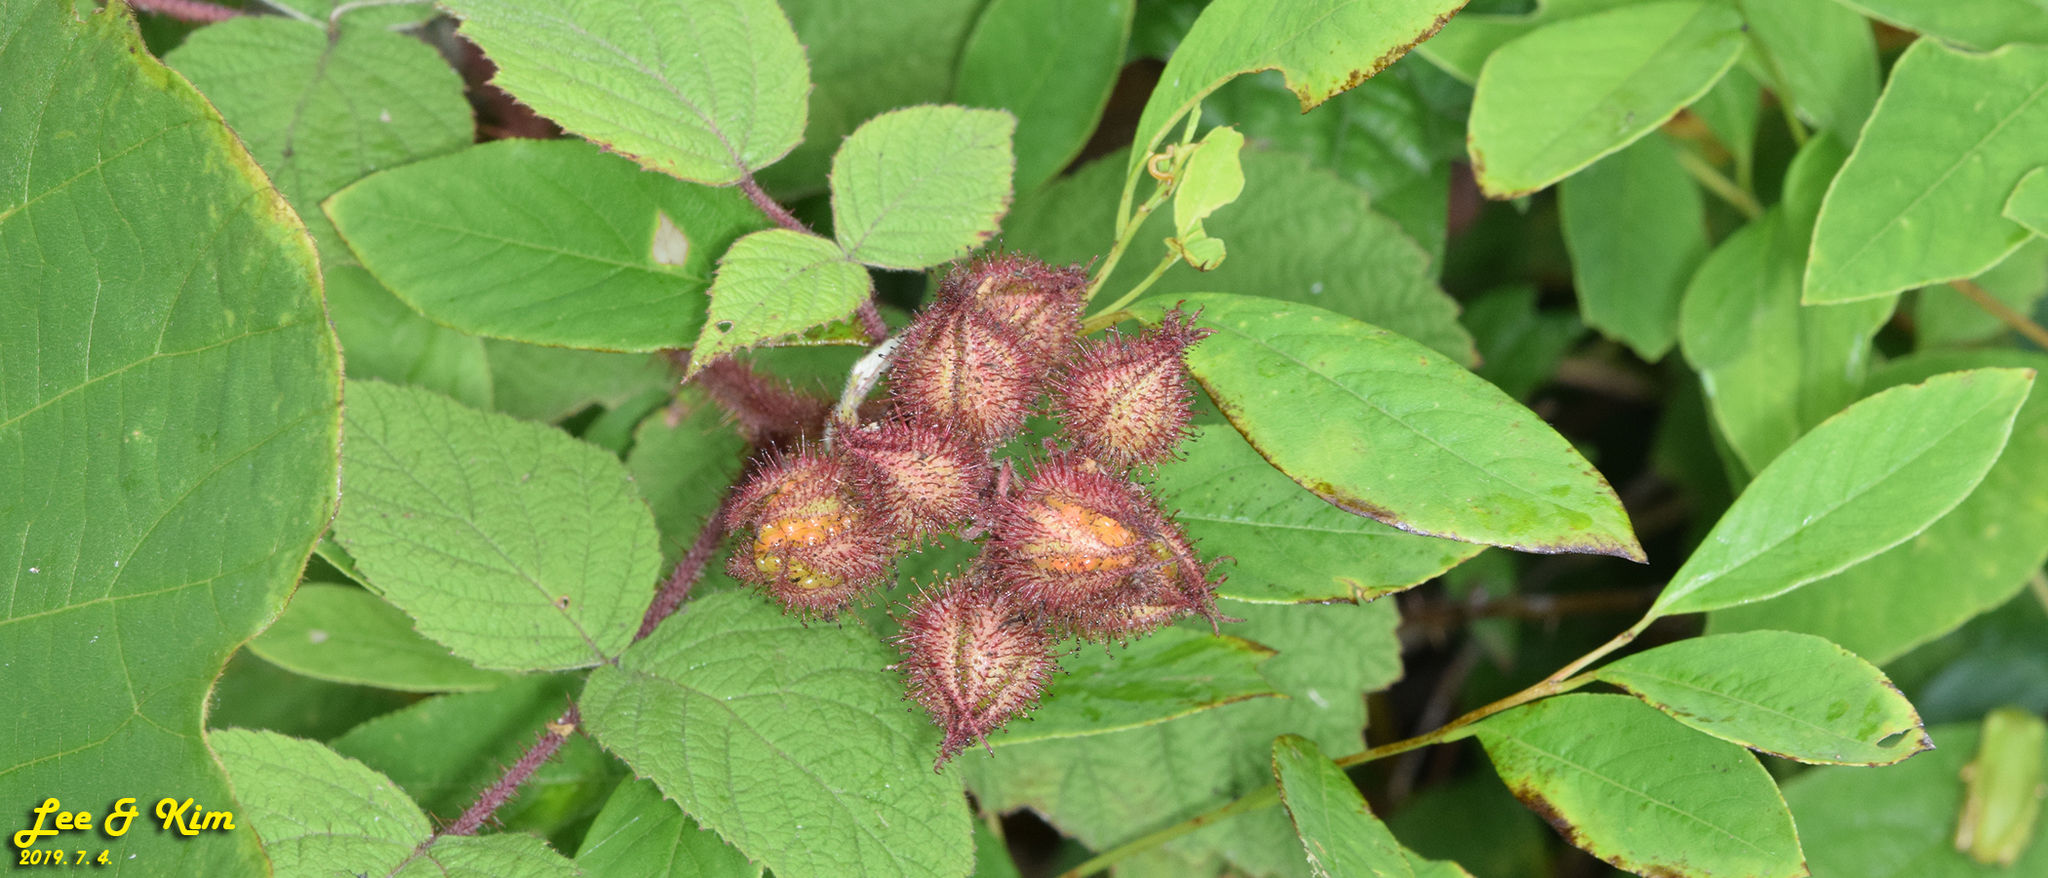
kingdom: Plantae
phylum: Tracheophyta
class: Magnoliopsida
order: Rosales
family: Rosaceae
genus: Rubus
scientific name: Rubus phoenicolasius
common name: Japanese wineberry
